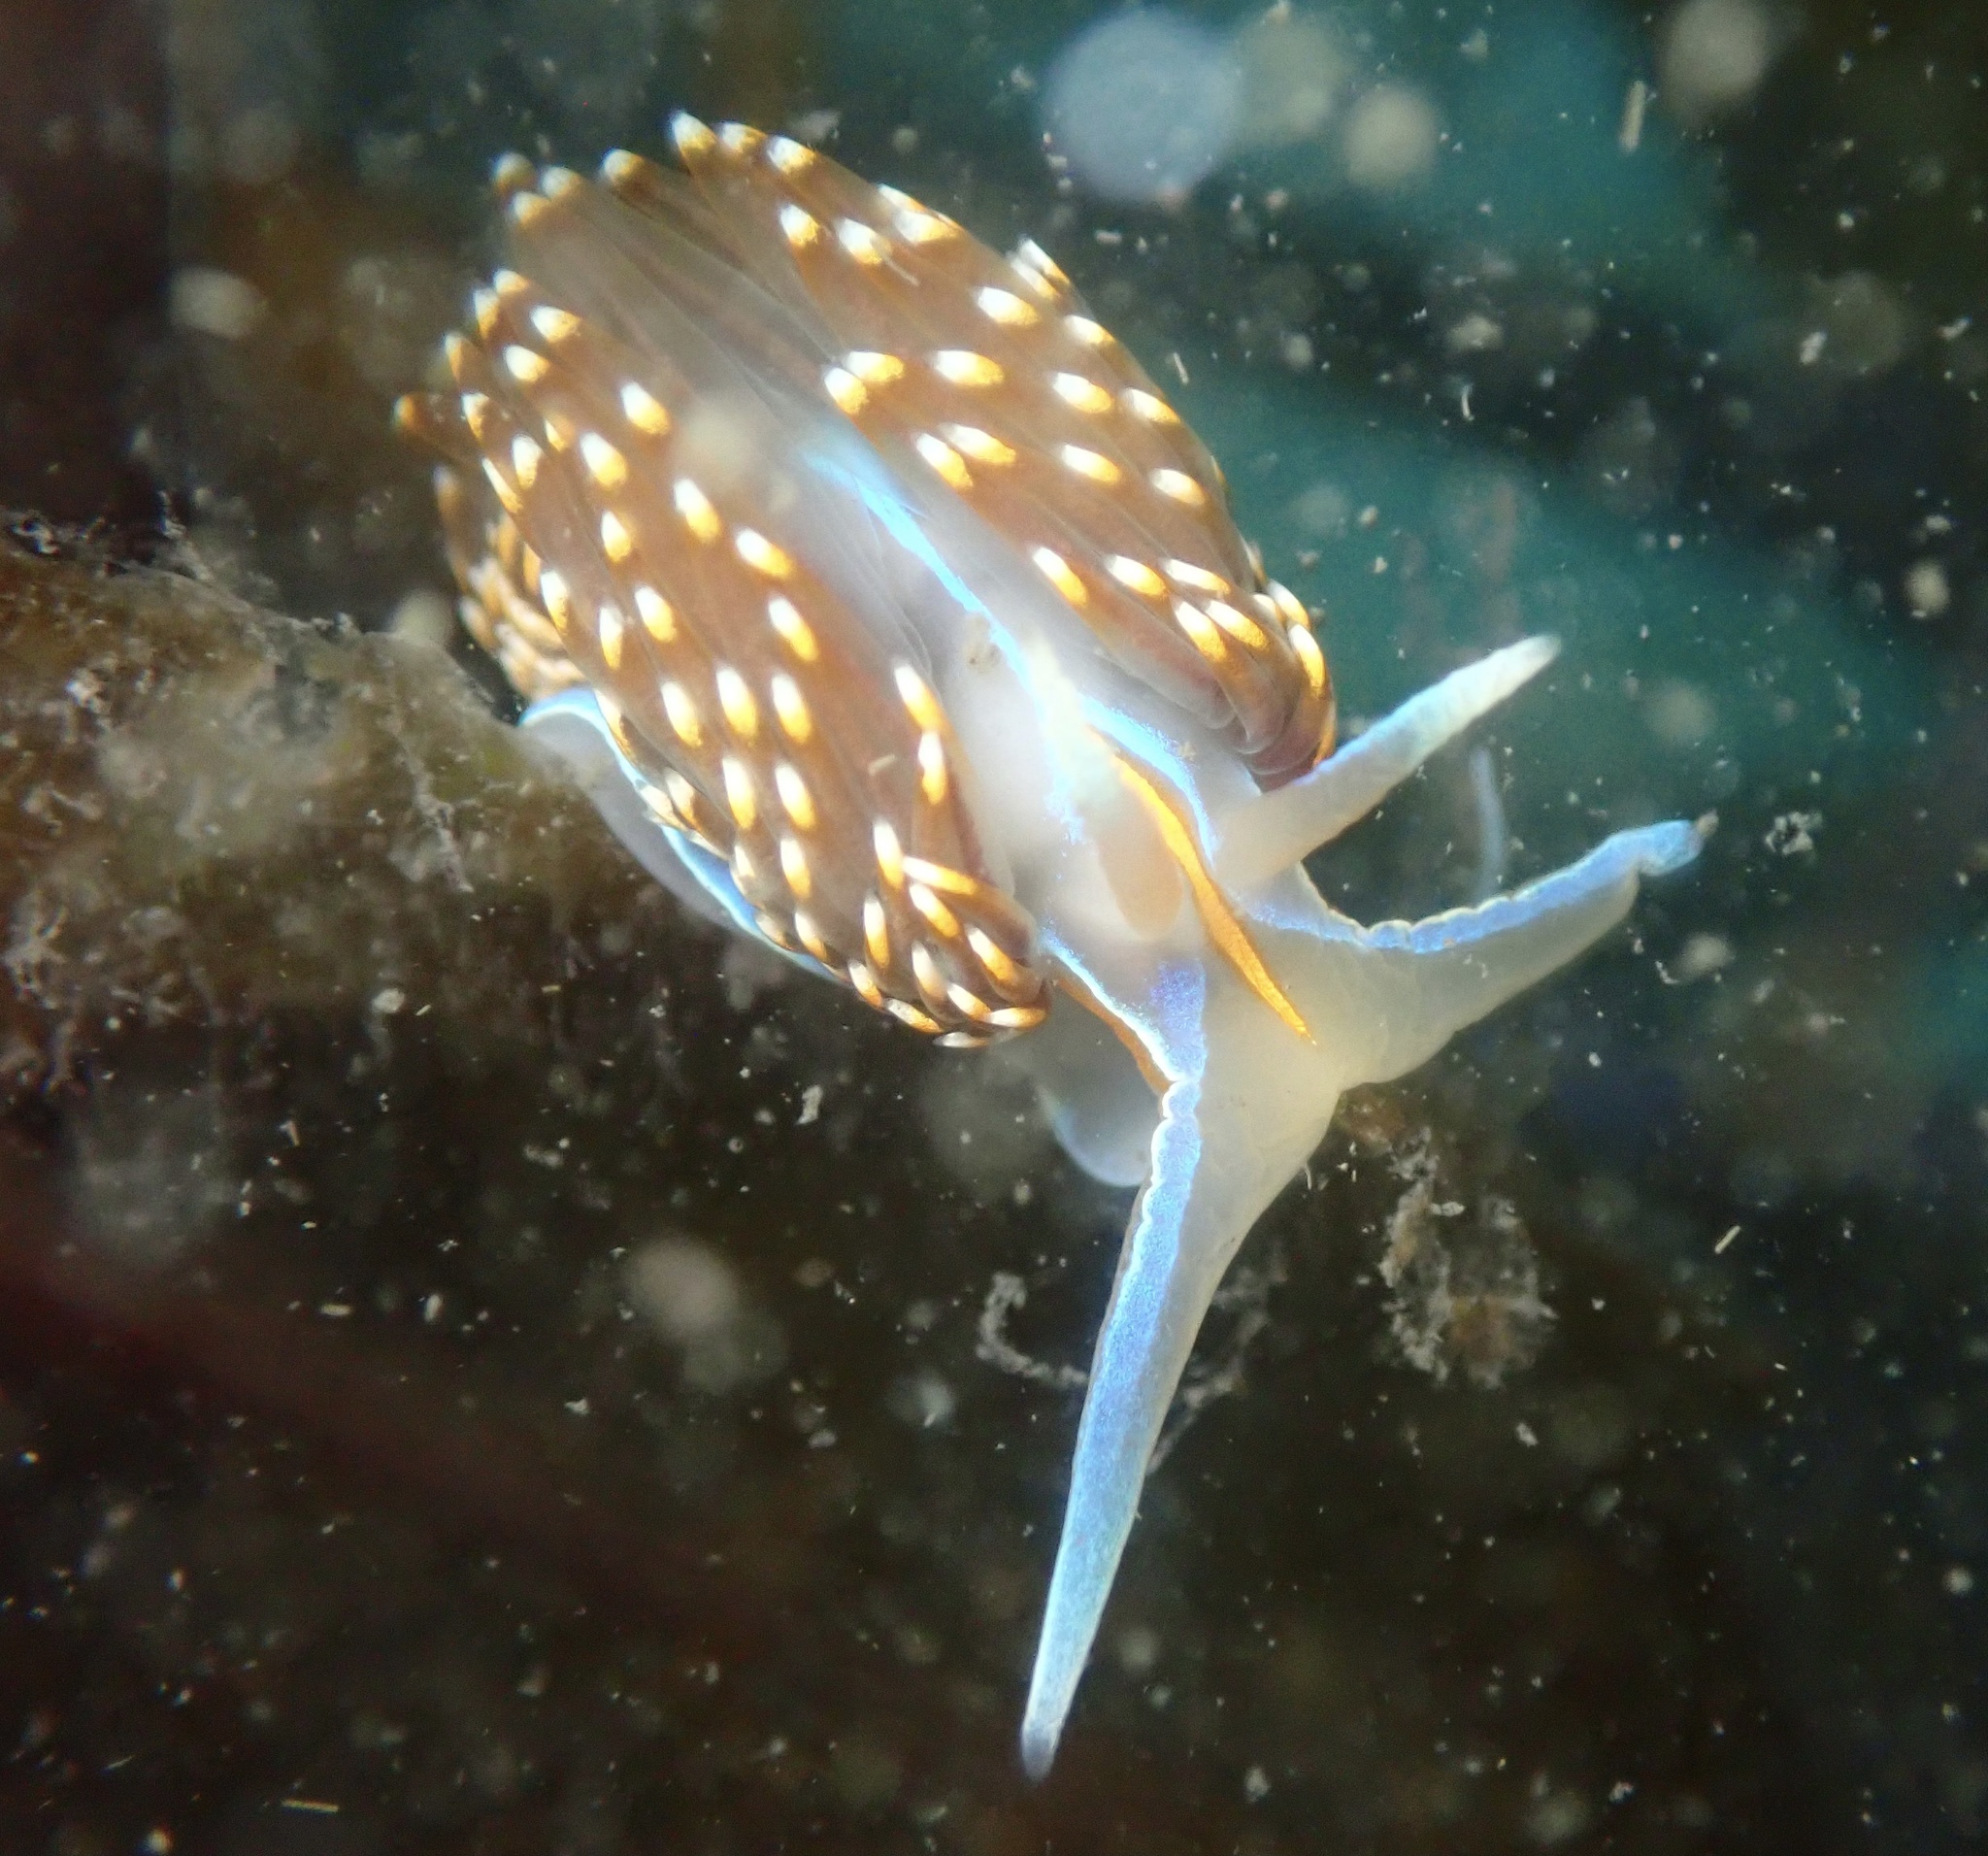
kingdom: Animalia
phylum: Mollusca
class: Gastropoda
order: Nudibranchia
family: Myrrhinidae
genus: Hermissenda
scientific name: Hermissenda opalescens
